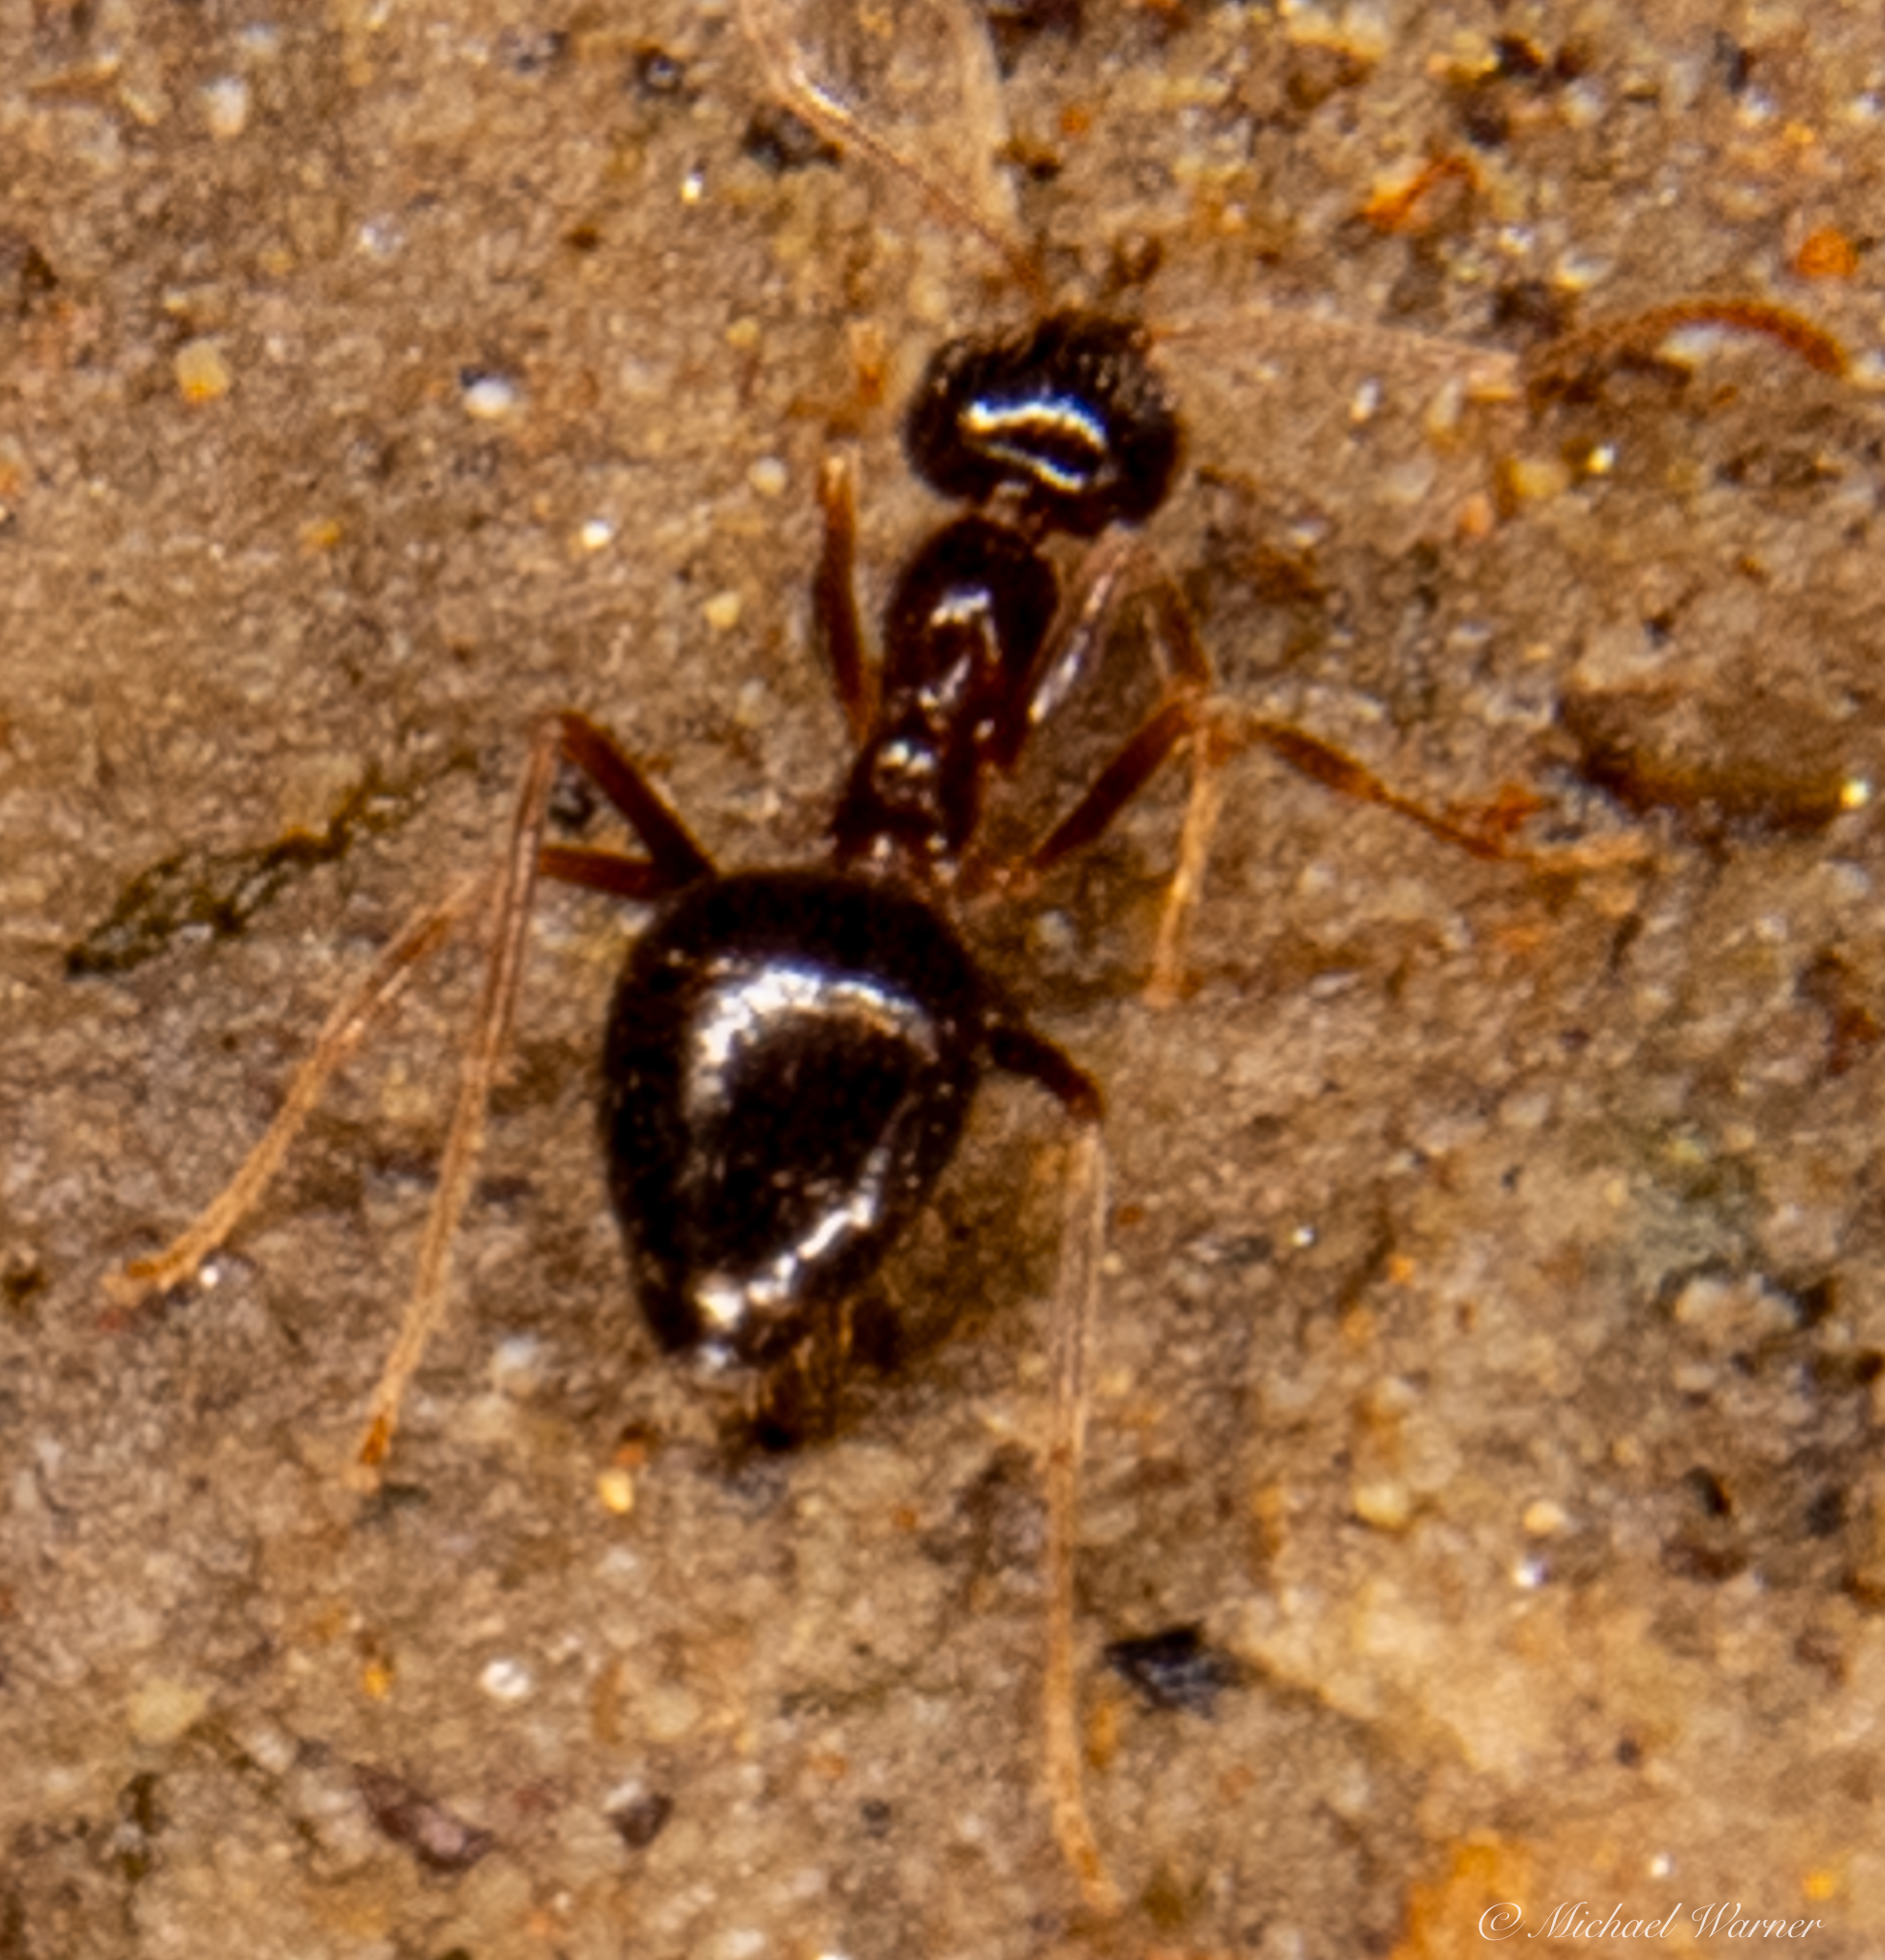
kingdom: Animalia
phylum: Arthropoda
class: Insecta
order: Hymenoptera
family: Formicidae
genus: Prenolepis
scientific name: Prenolepis imparis
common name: Small honey ant
